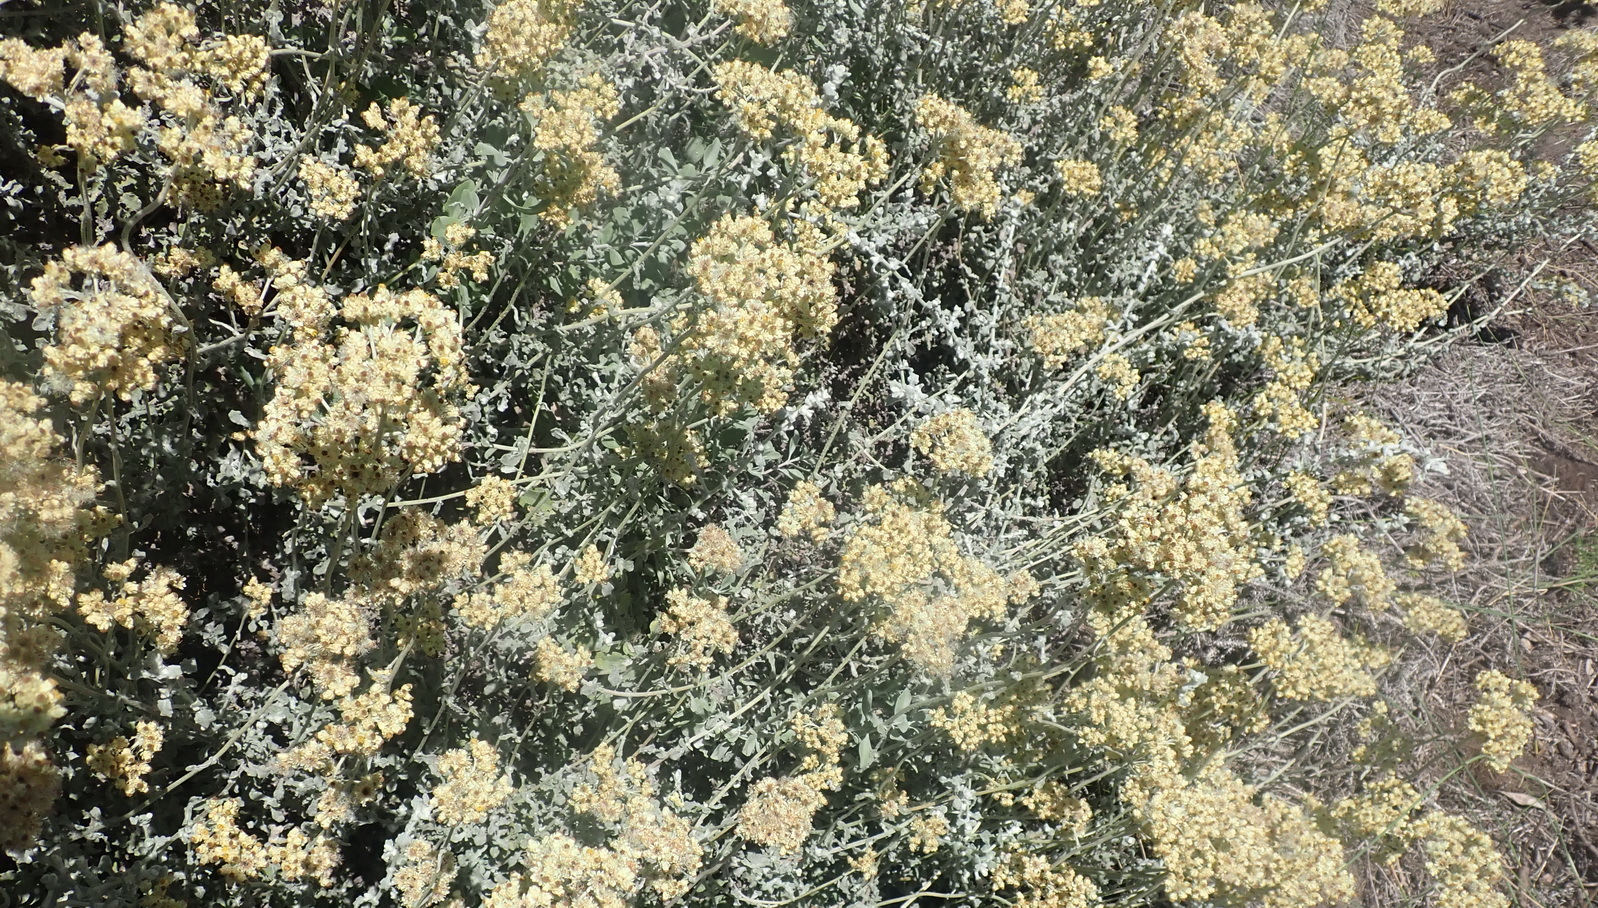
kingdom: Plantae
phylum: Tracheophyta
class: Magnoliopsida
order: Asterales
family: Asteraceae
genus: Helichrysum
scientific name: Helichrysum patulum
